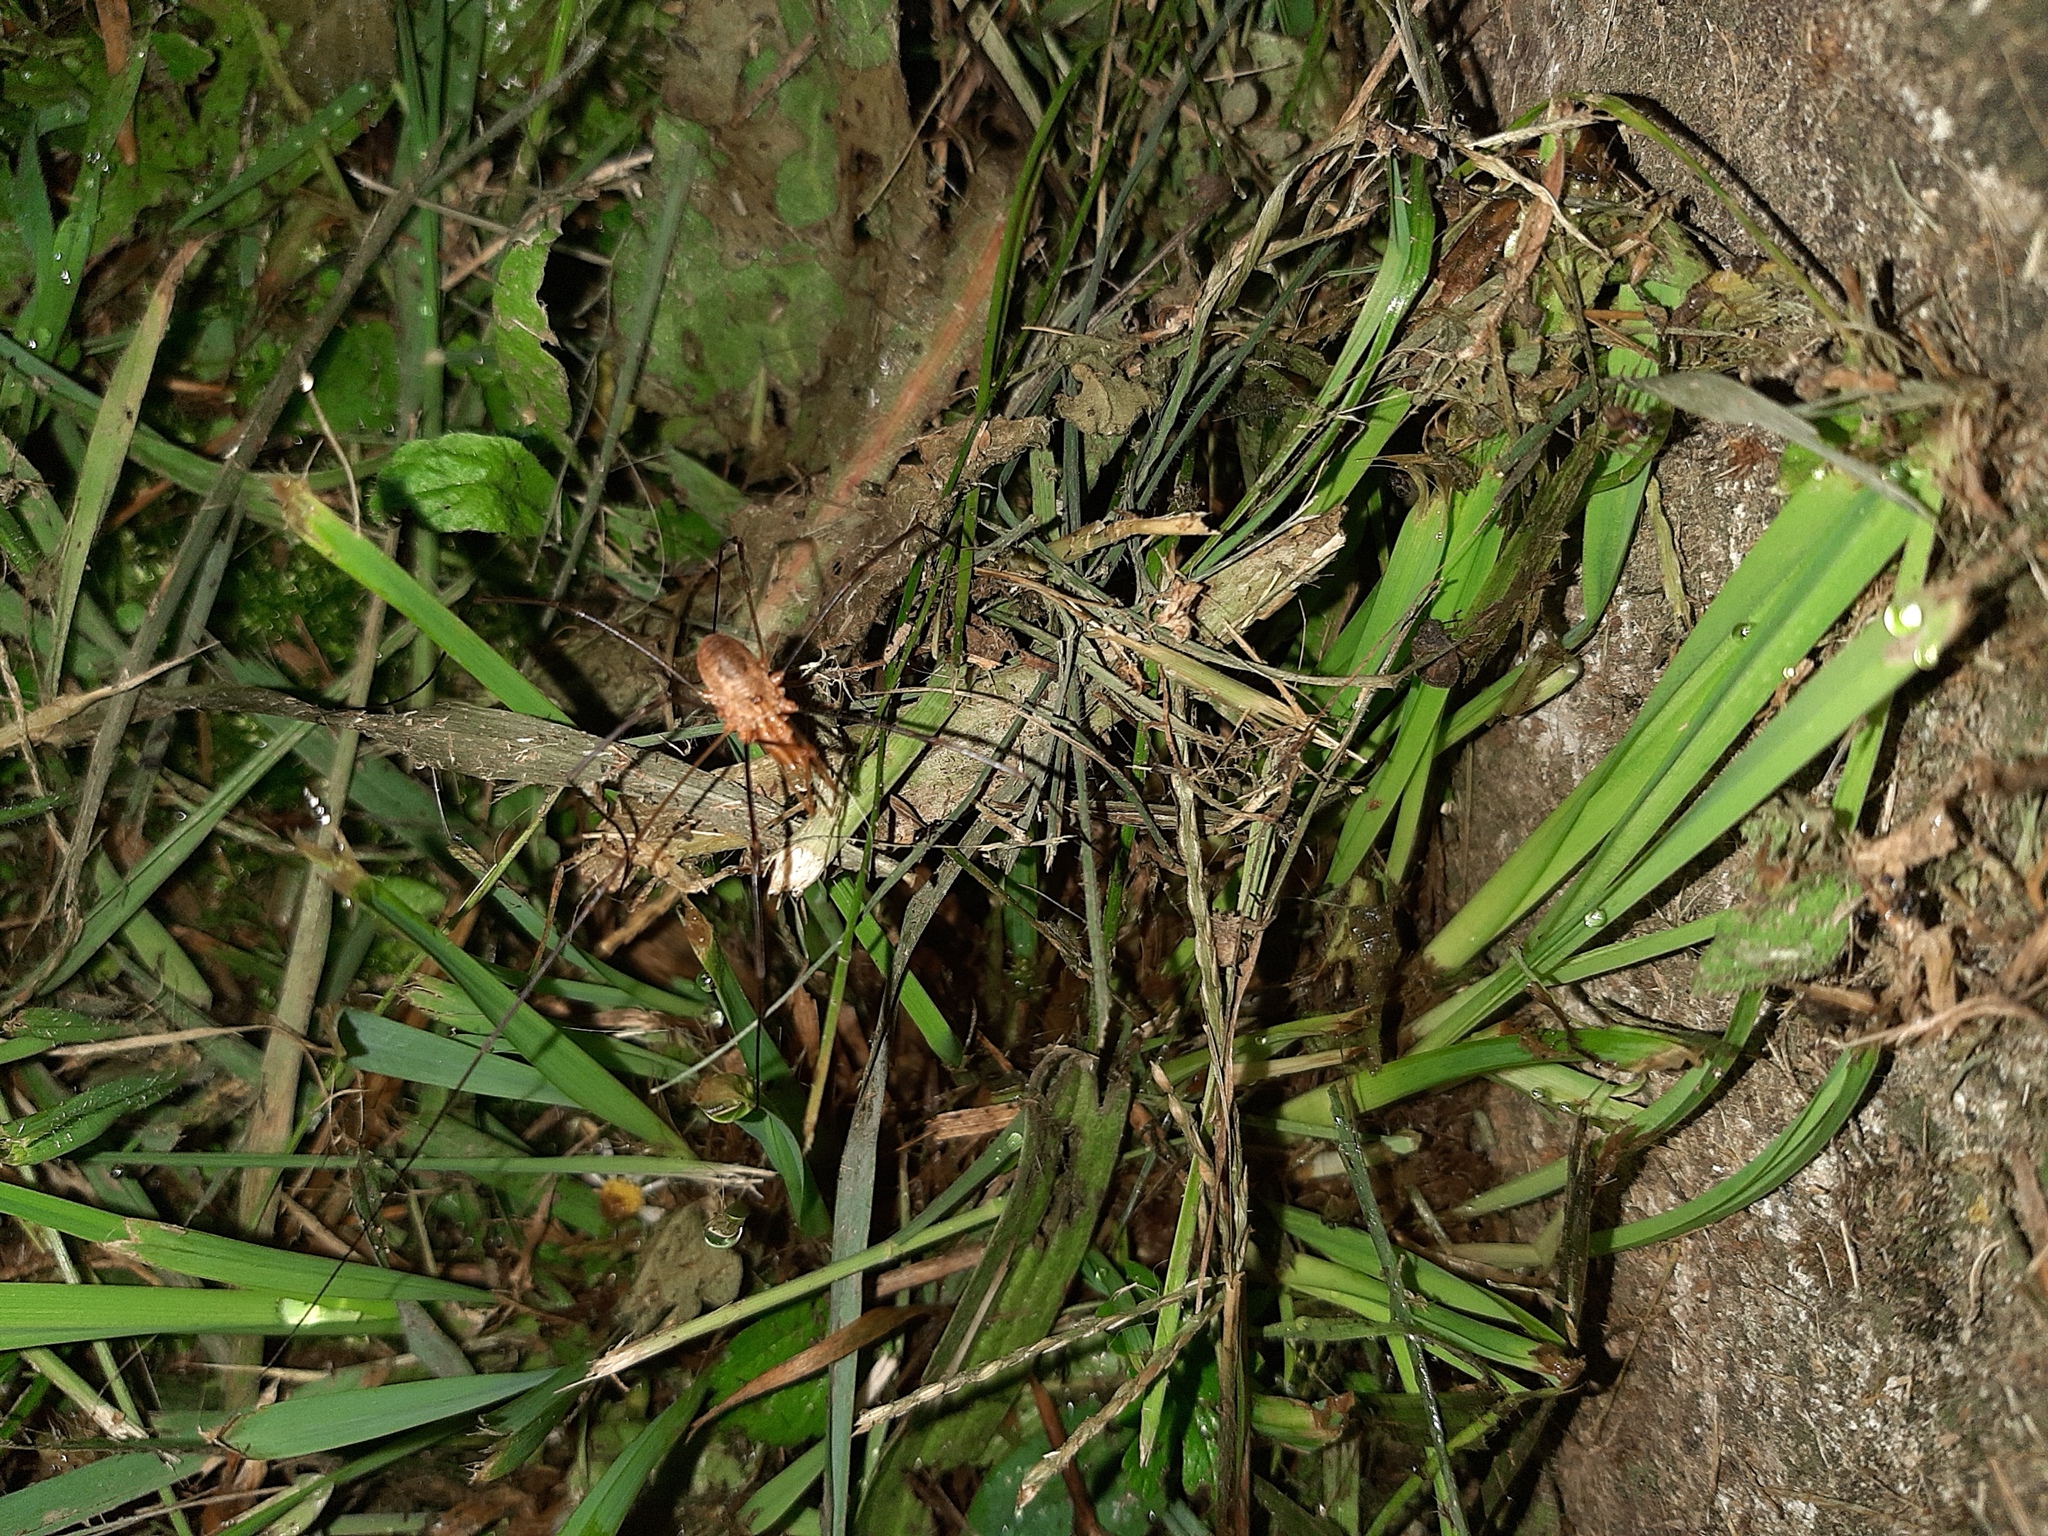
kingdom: Animalia
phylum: Arthropoda
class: Arachnida
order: Opiliones
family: Phalangiidae
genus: Phalangium
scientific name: Phalangium opilio
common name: Daddy longleg
